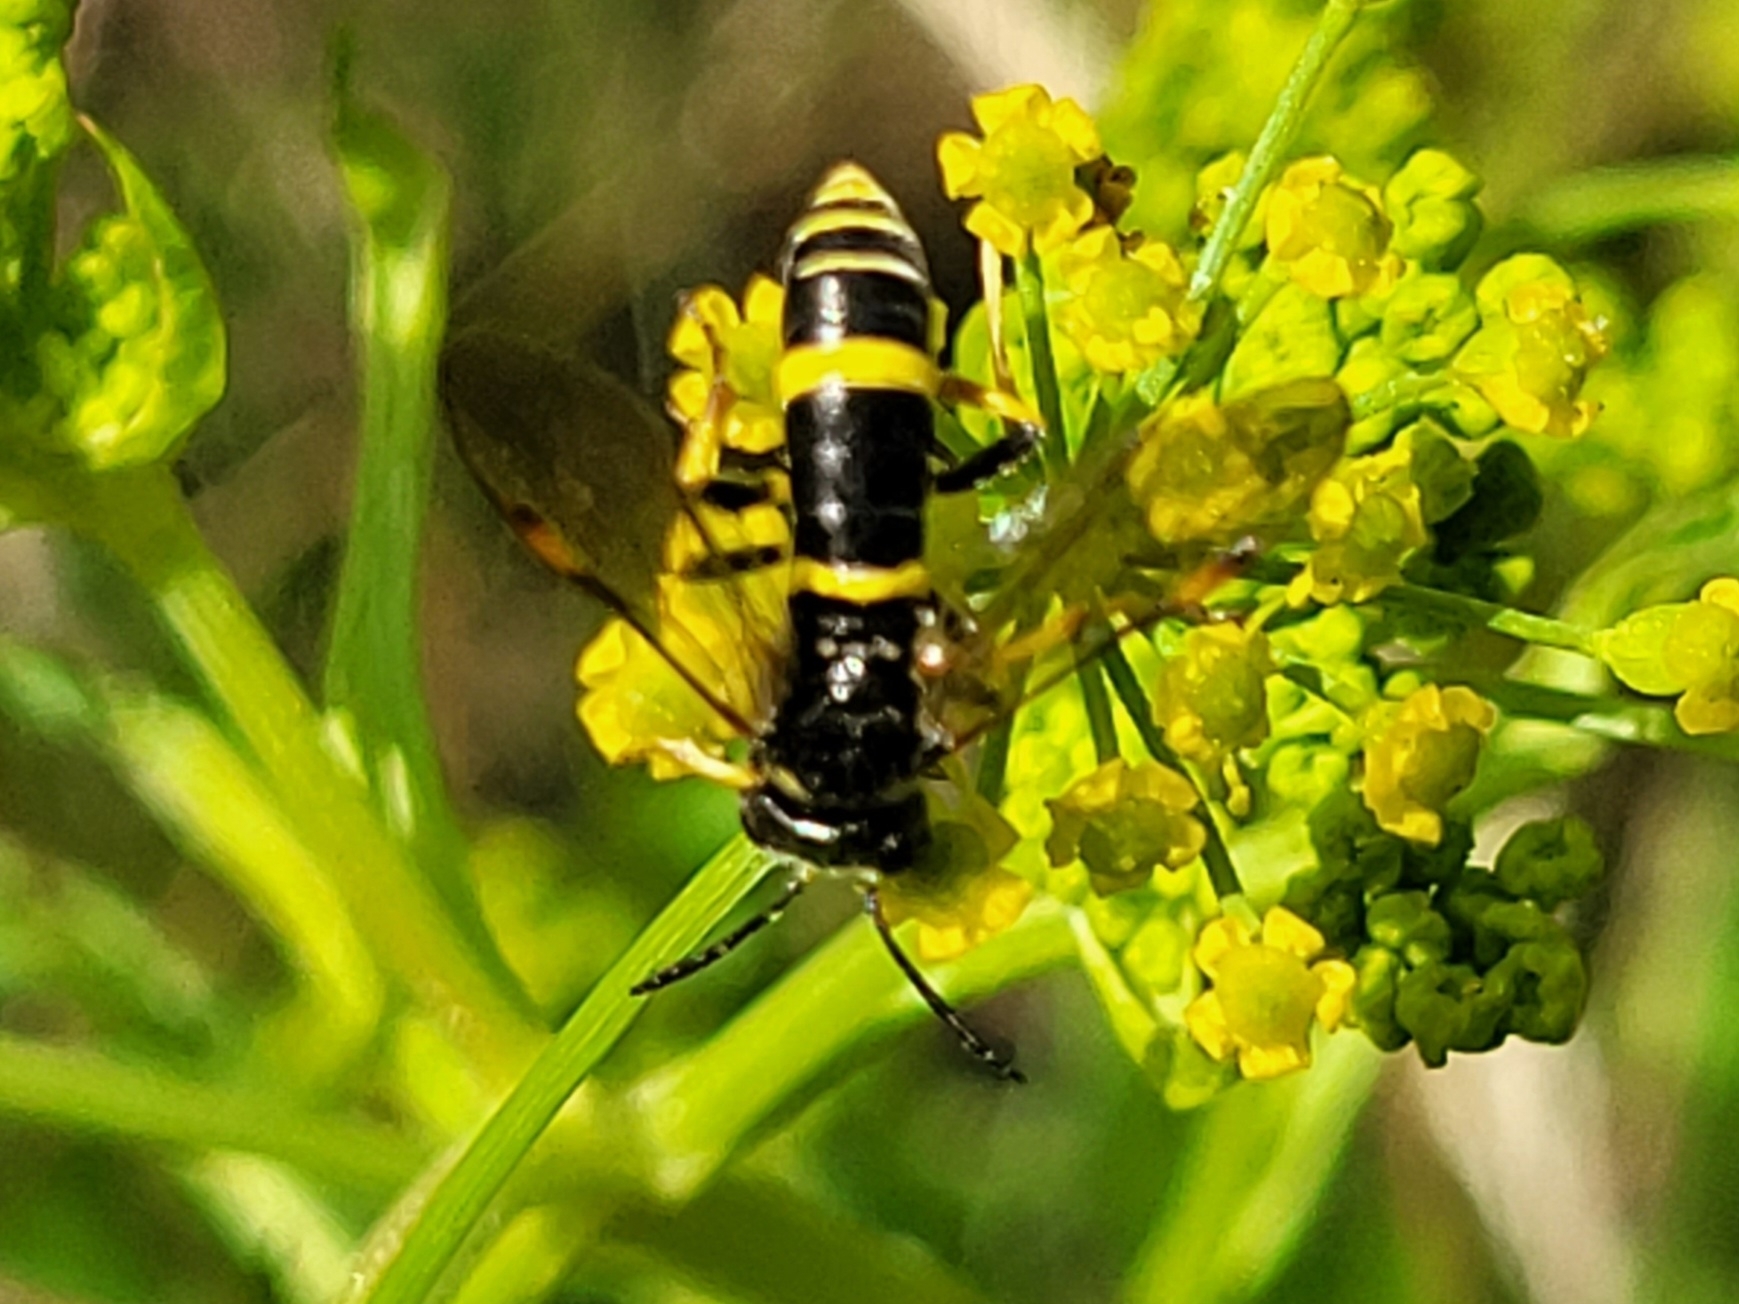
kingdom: Animalia
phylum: Arthropoda
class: Insecta
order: Hymenoptera
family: Tenthredinidae
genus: Tenthredo
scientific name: Tenthredo amoena
